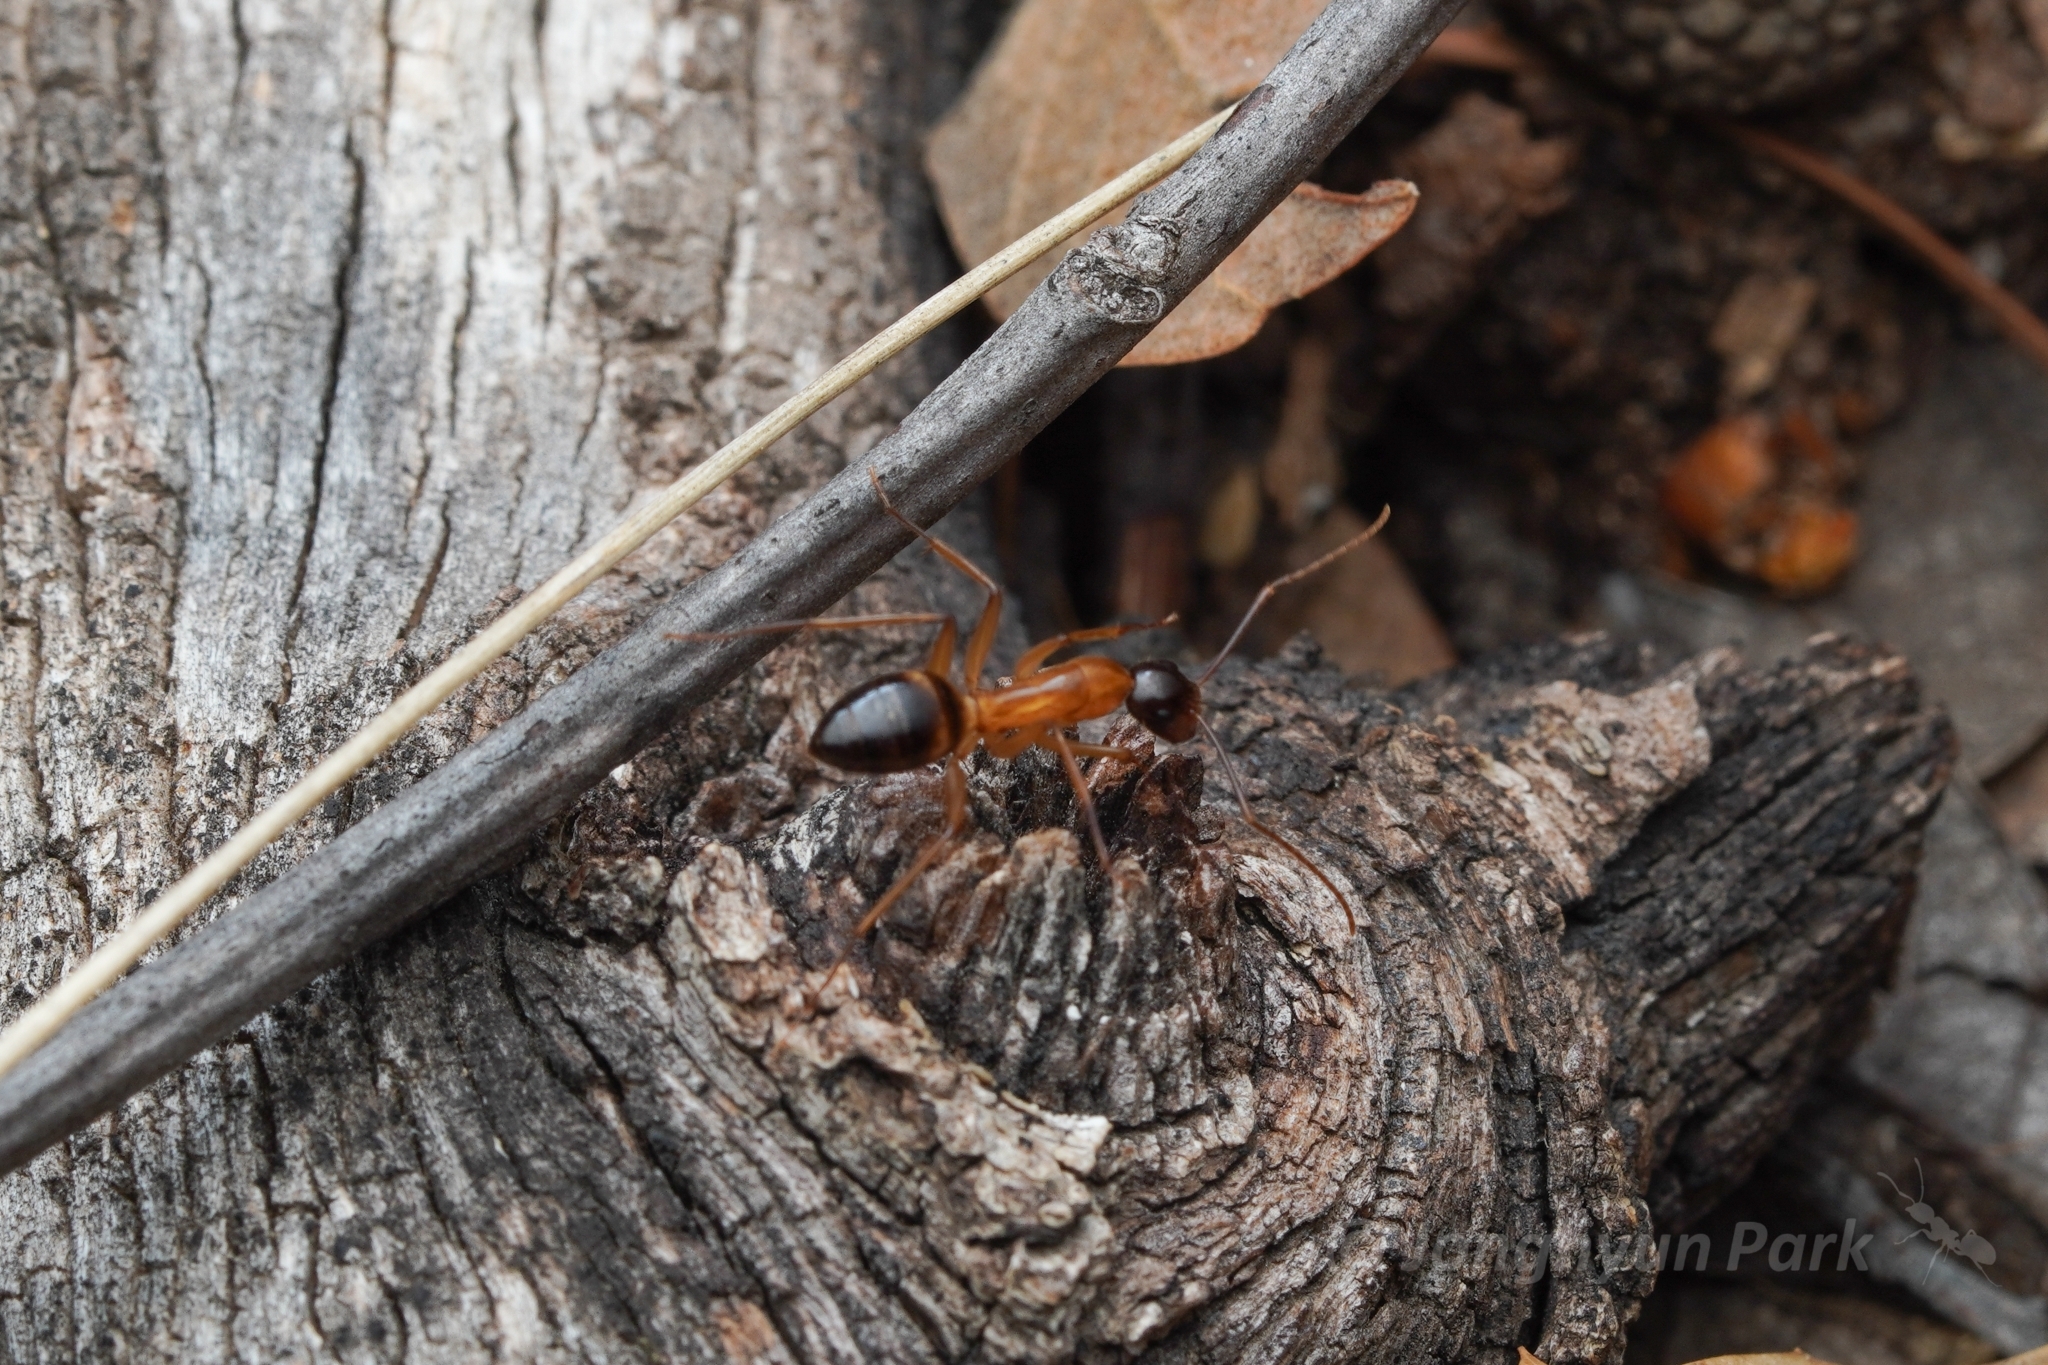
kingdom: Animalia
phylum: Arthropoda
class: Insecta
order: Hymenoptera
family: Formicidae
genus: Camponotus
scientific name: Camponotus vafer
